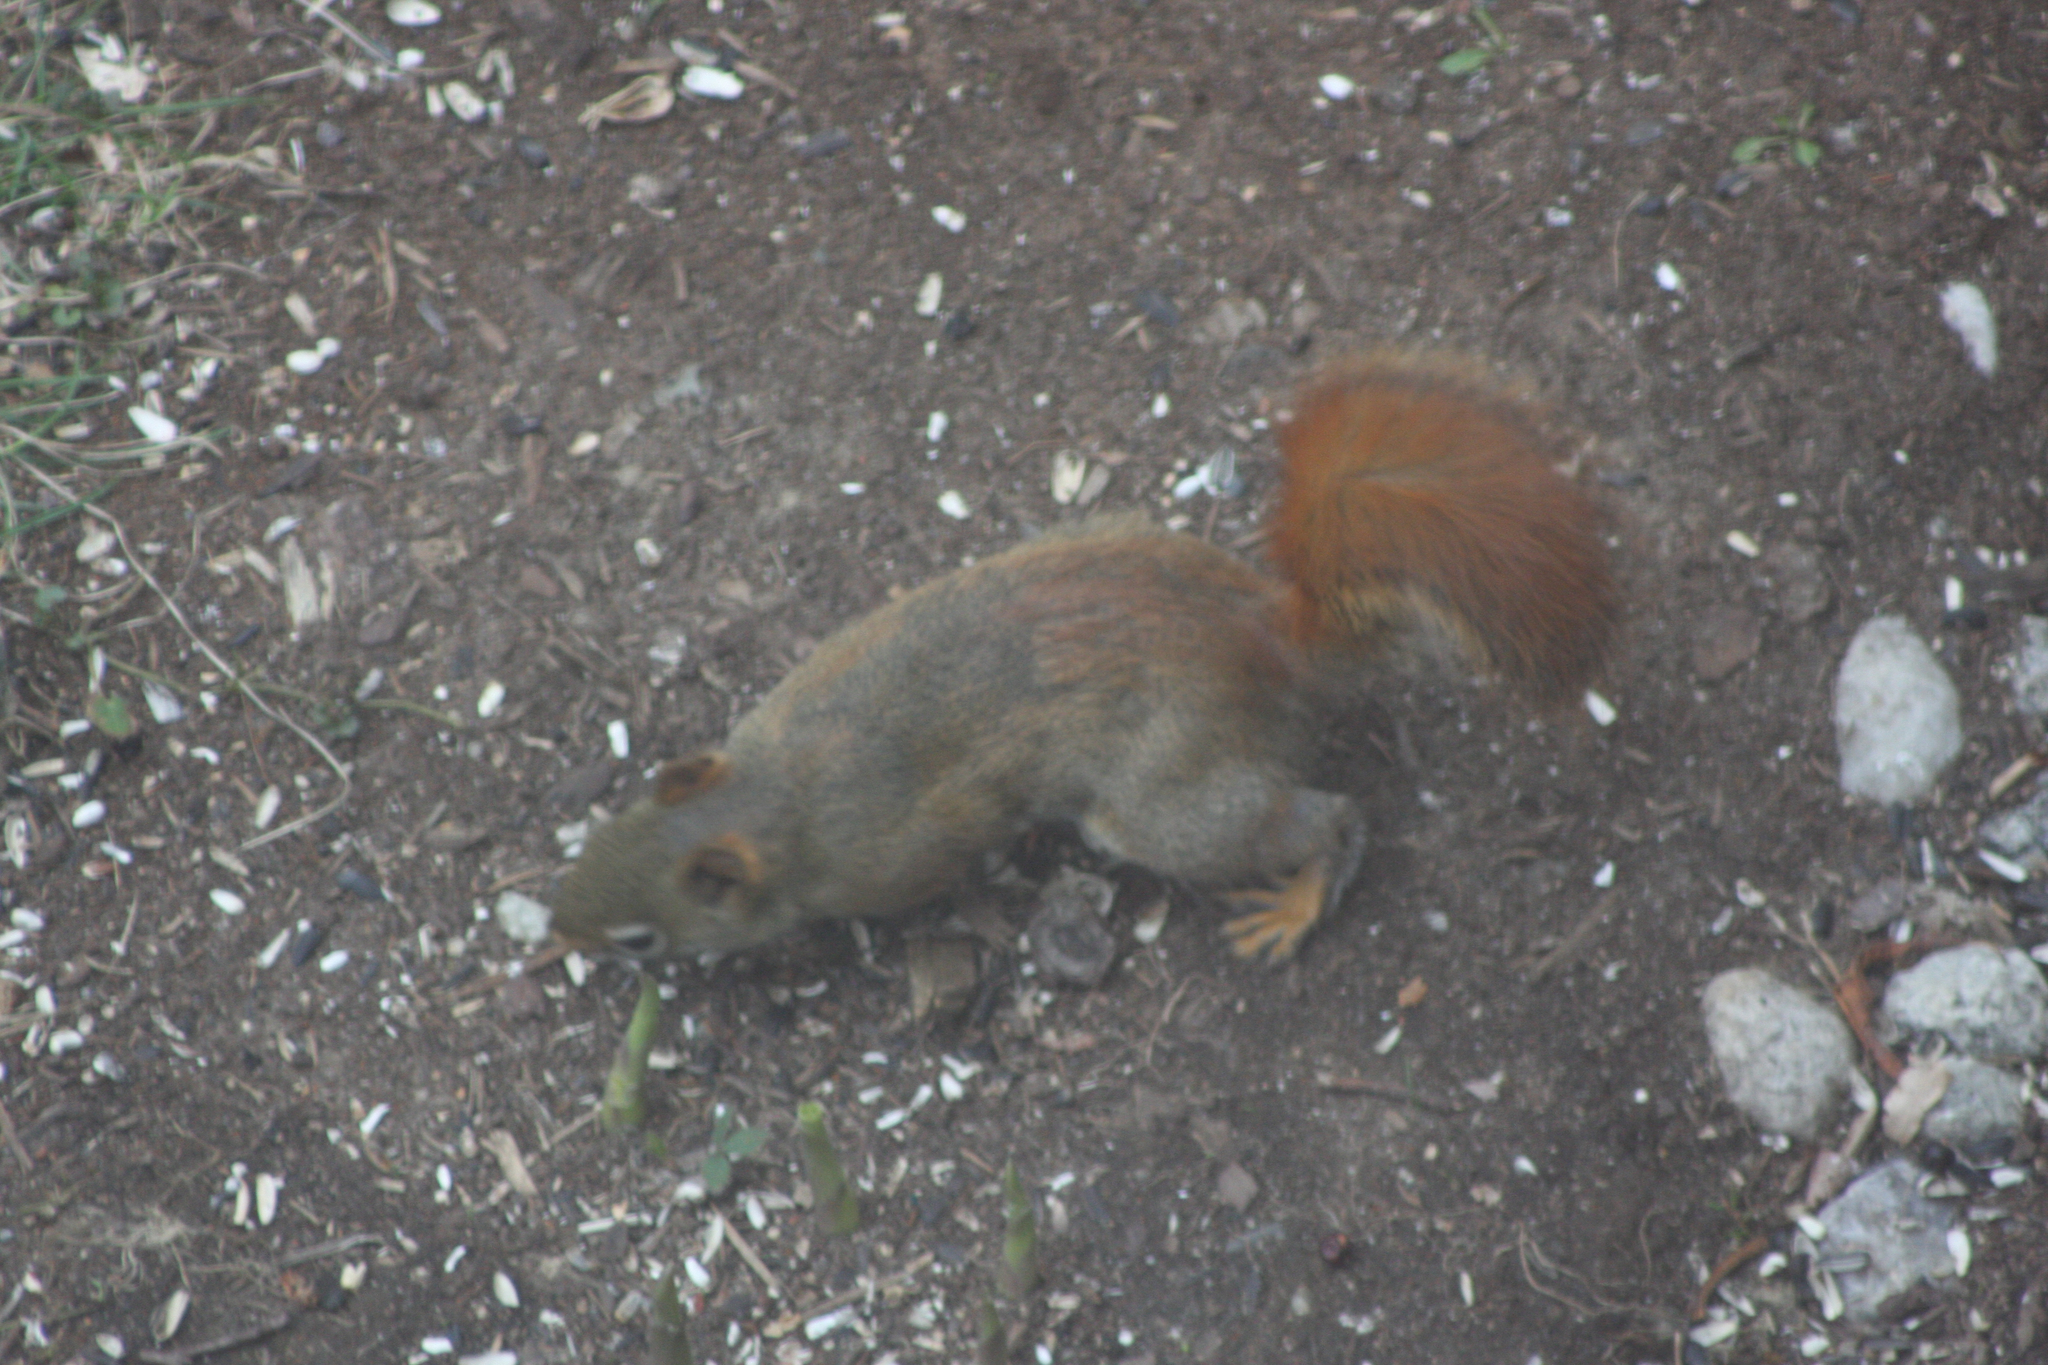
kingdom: Animalia
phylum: Chordata
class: Mammalia
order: Rodentia
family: Sciuridae
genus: Tamiasciurus
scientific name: Tamiasciurus hudsonicus
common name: Red squirrel
